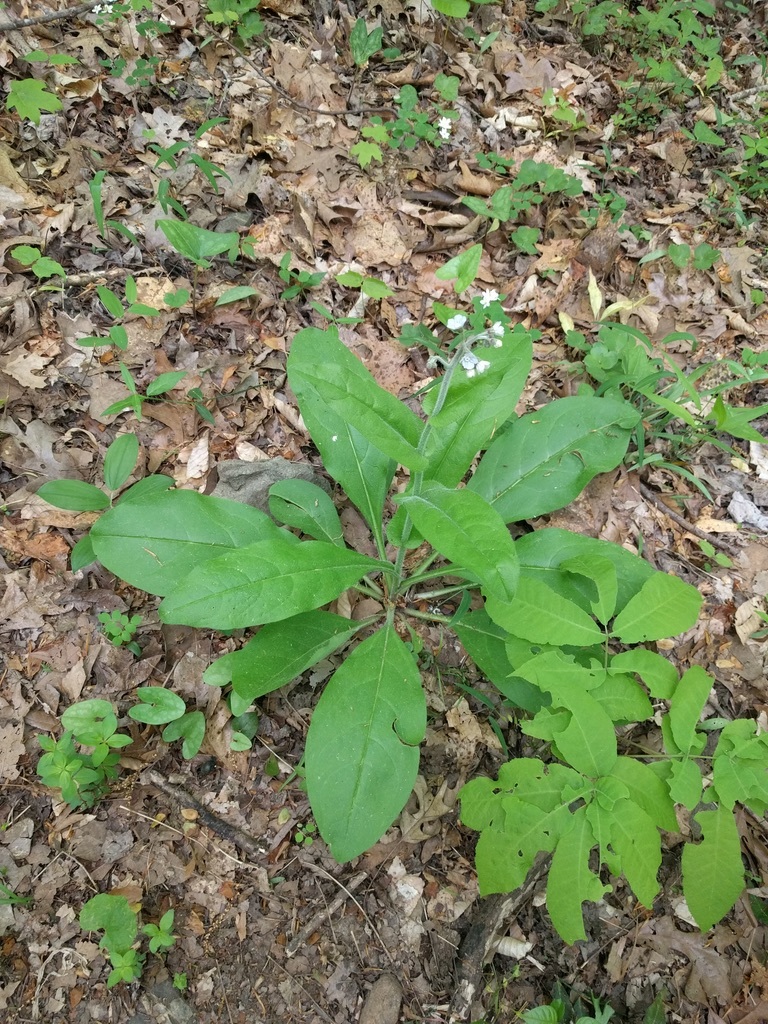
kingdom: Plantae
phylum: Tracheophyta
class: Magnoliopsida
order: Boraginales
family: Boraginaceae
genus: Andersonglossum
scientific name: Andersonglossum virginianum
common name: Wild comfrey
